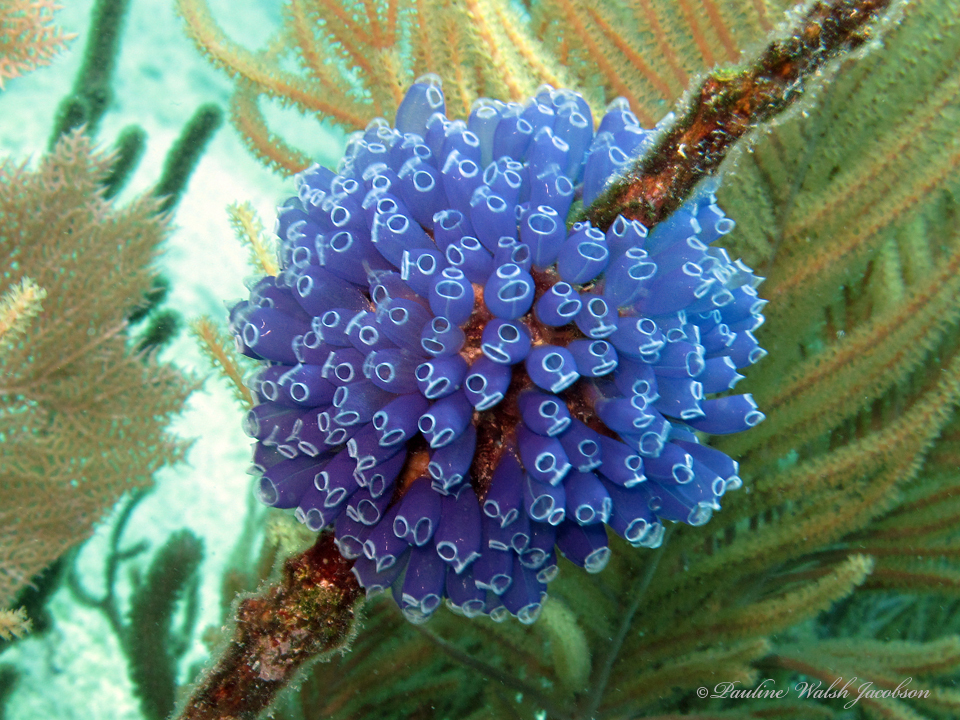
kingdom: Animalia
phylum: Chordata
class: Ascidiacea
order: Aplousobranchia
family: Clavelinidae
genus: Clavelina
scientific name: Clavelina puertosecensis
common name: Blue bell tunicate
